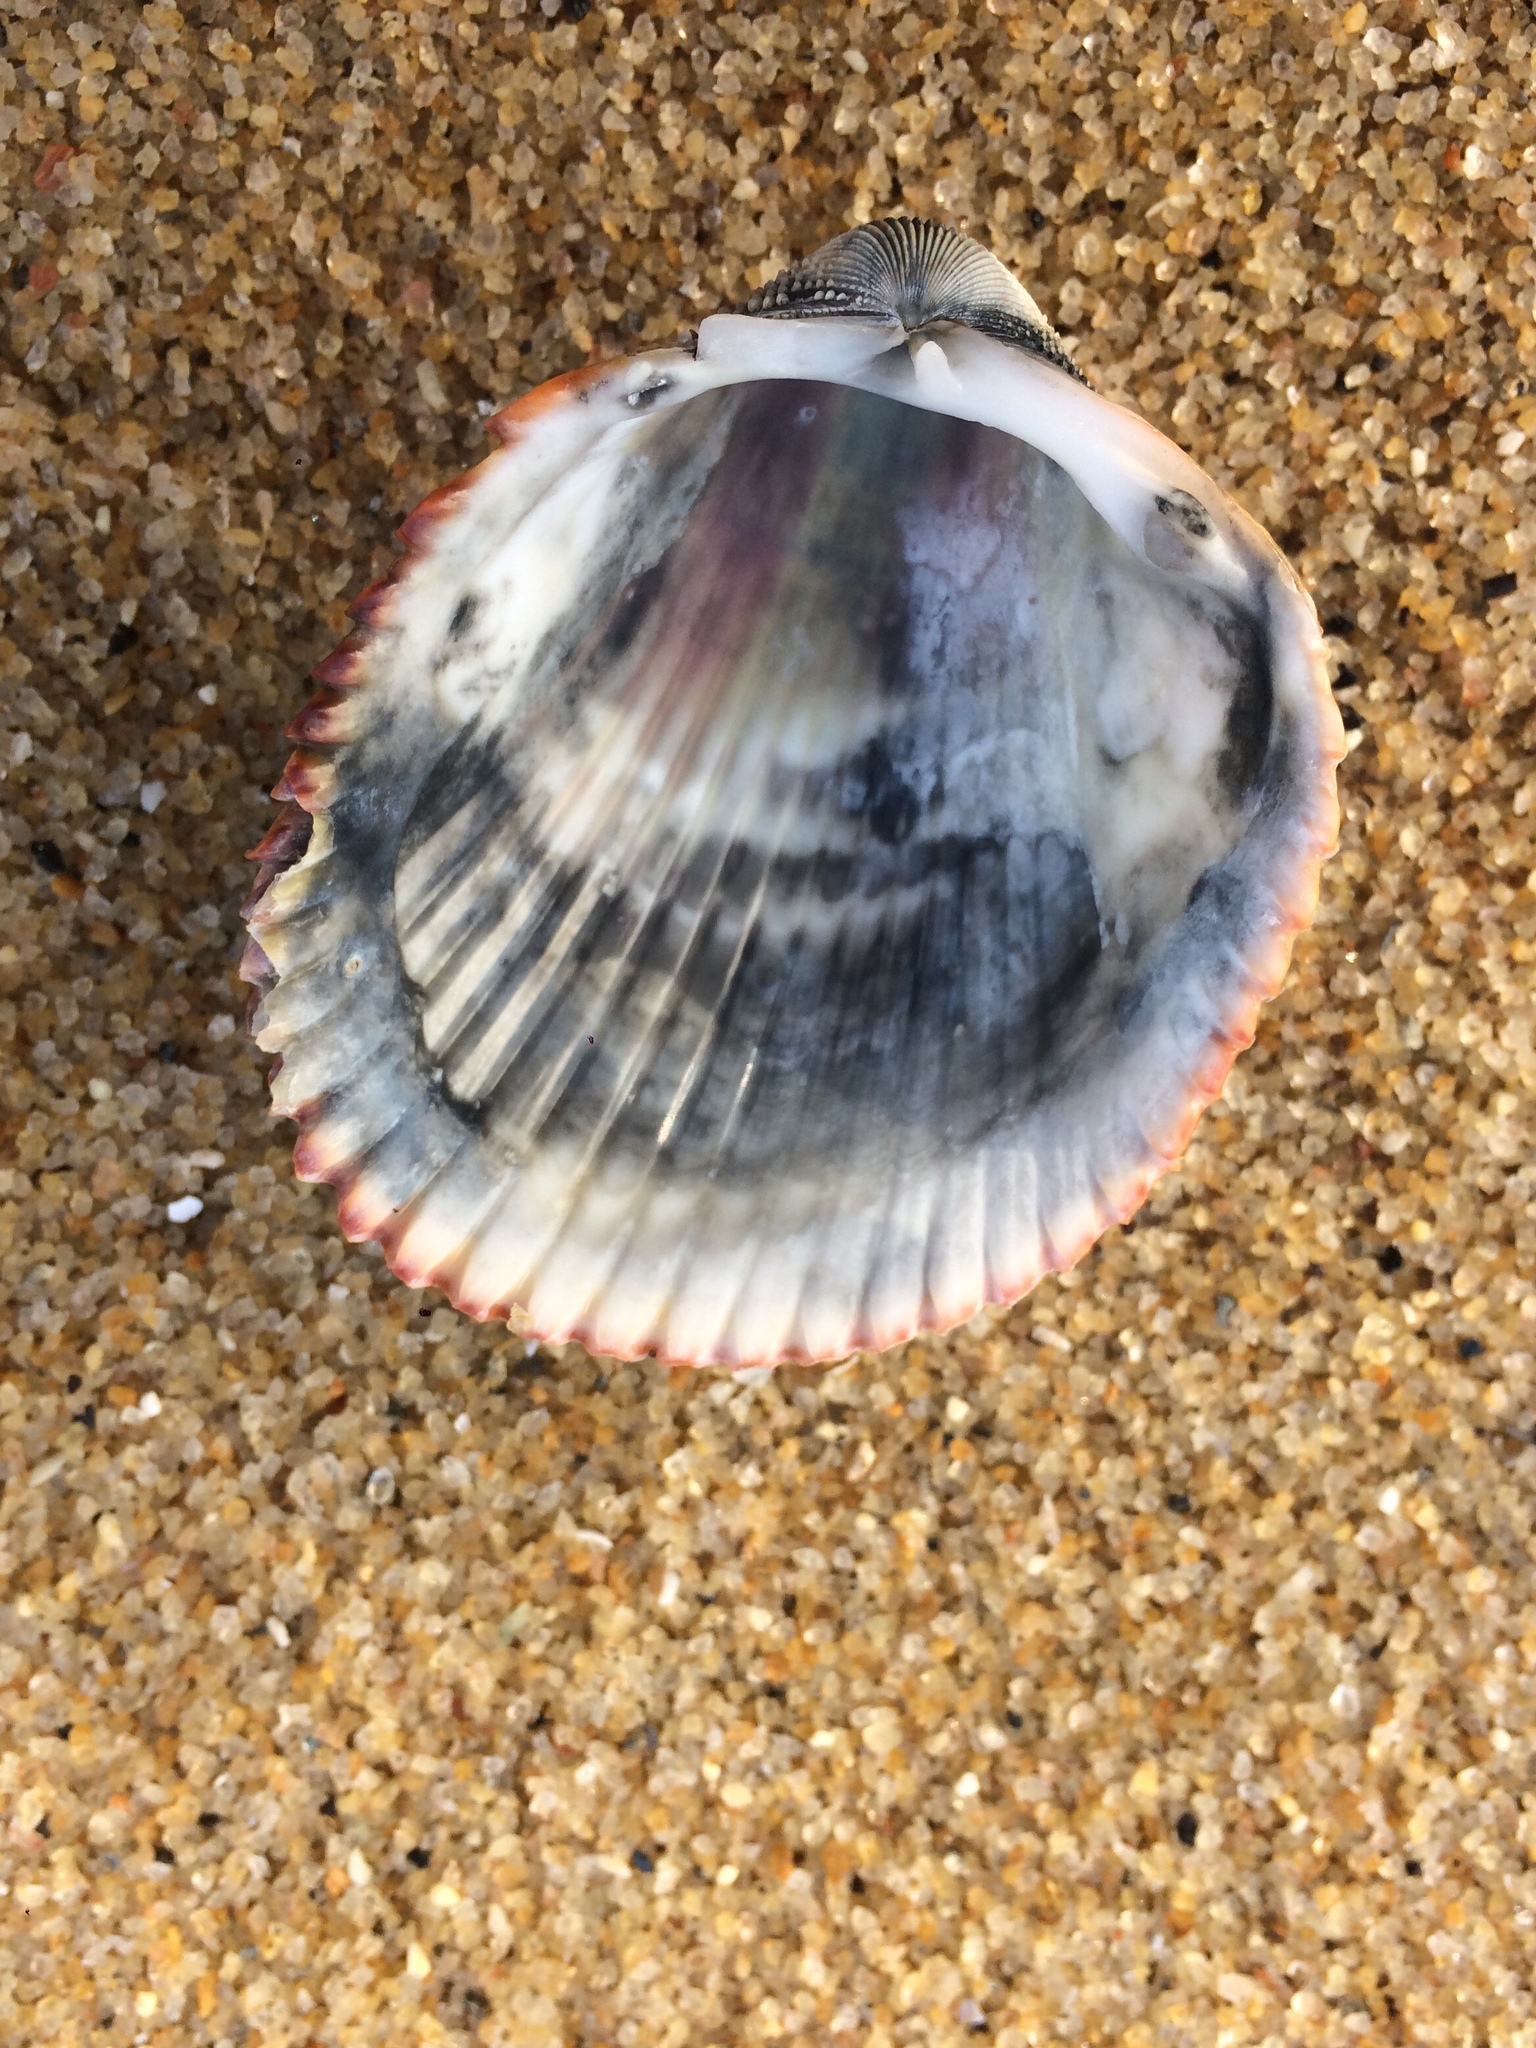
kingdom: Animalia
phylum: Mollusca
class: Bivalvia
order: Cardiida
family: Cardiidae
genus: Dallocardia
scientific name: Dallocardia muricata
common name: Yellow pricklycockle
